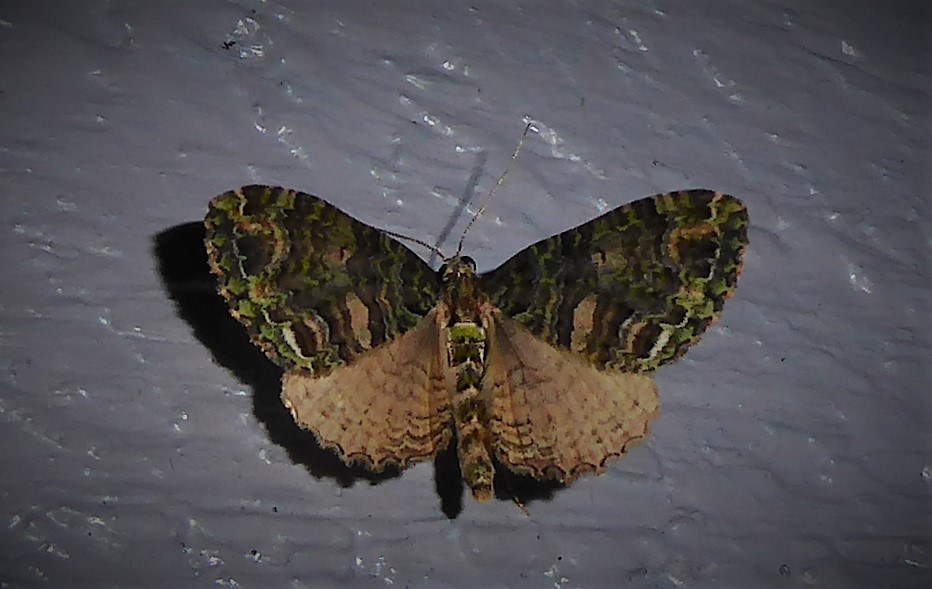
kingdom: Animalia
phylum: Arthropoda
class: Insecta
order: Lepidoptera
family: Geometridae
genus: Austrocidaria
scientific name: Austrocidaria similata
